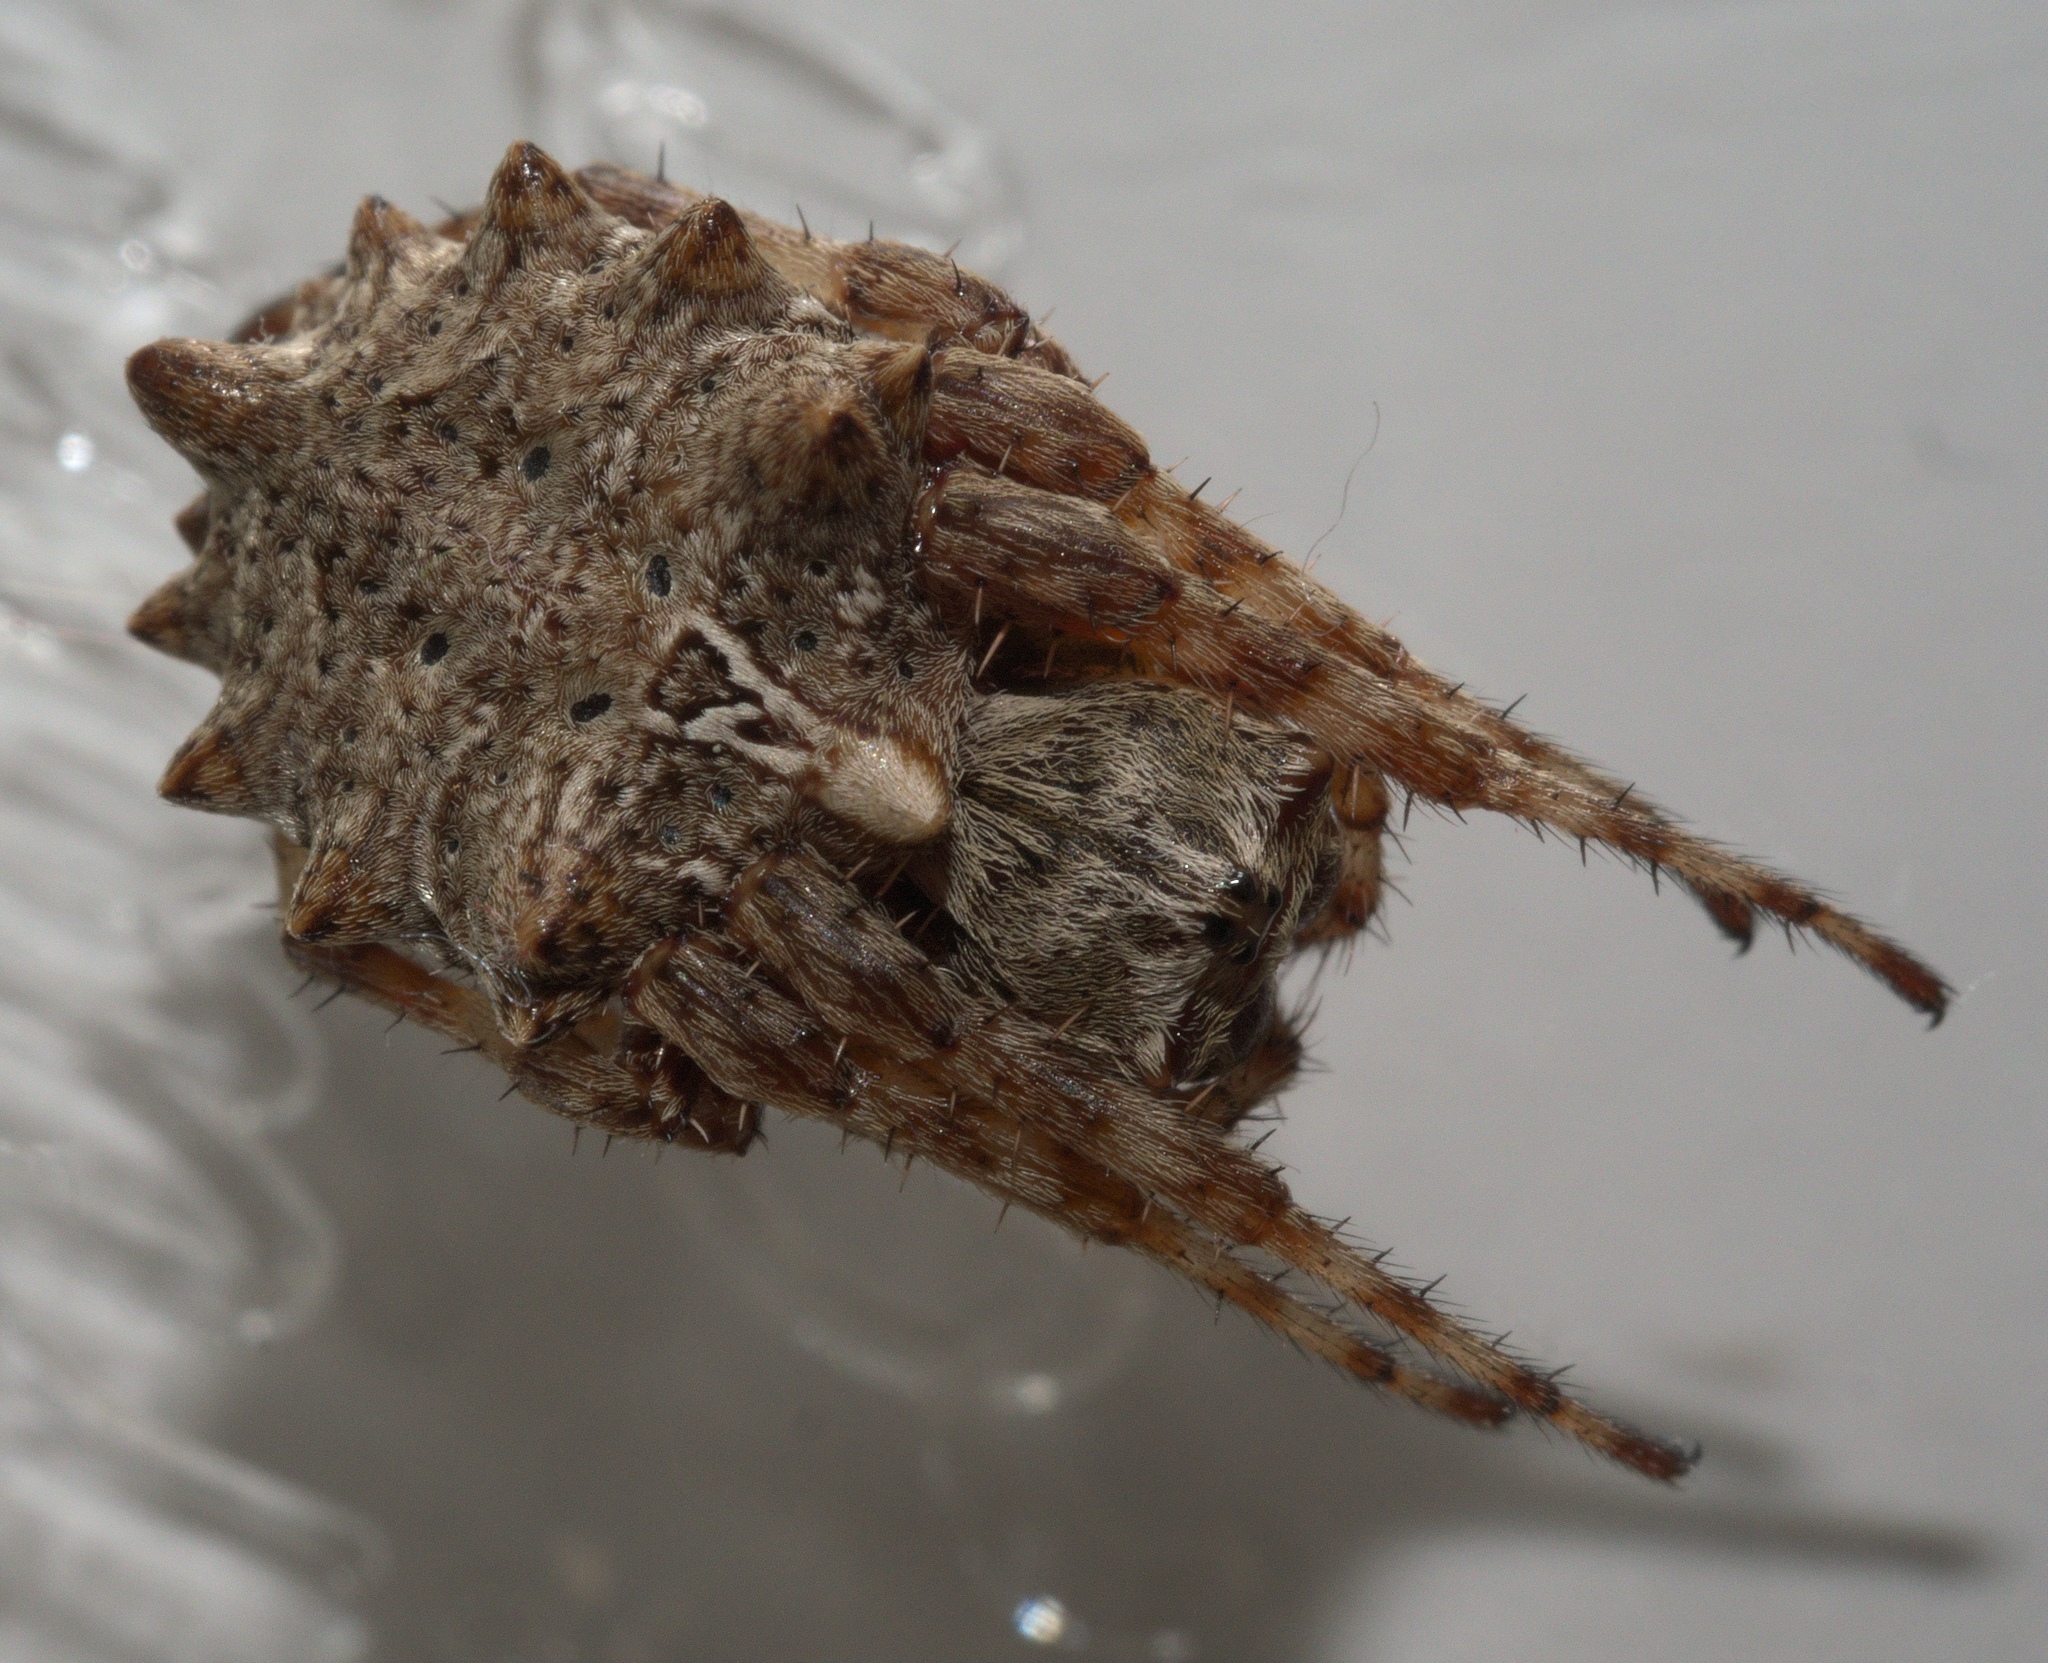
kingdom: Animalia
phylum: Arthropoda
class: Arachnida
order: Araneae
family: Araneidae
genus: Acanthepeira
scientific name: Acanthepeira stellata
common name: Starbellied orbweaver
